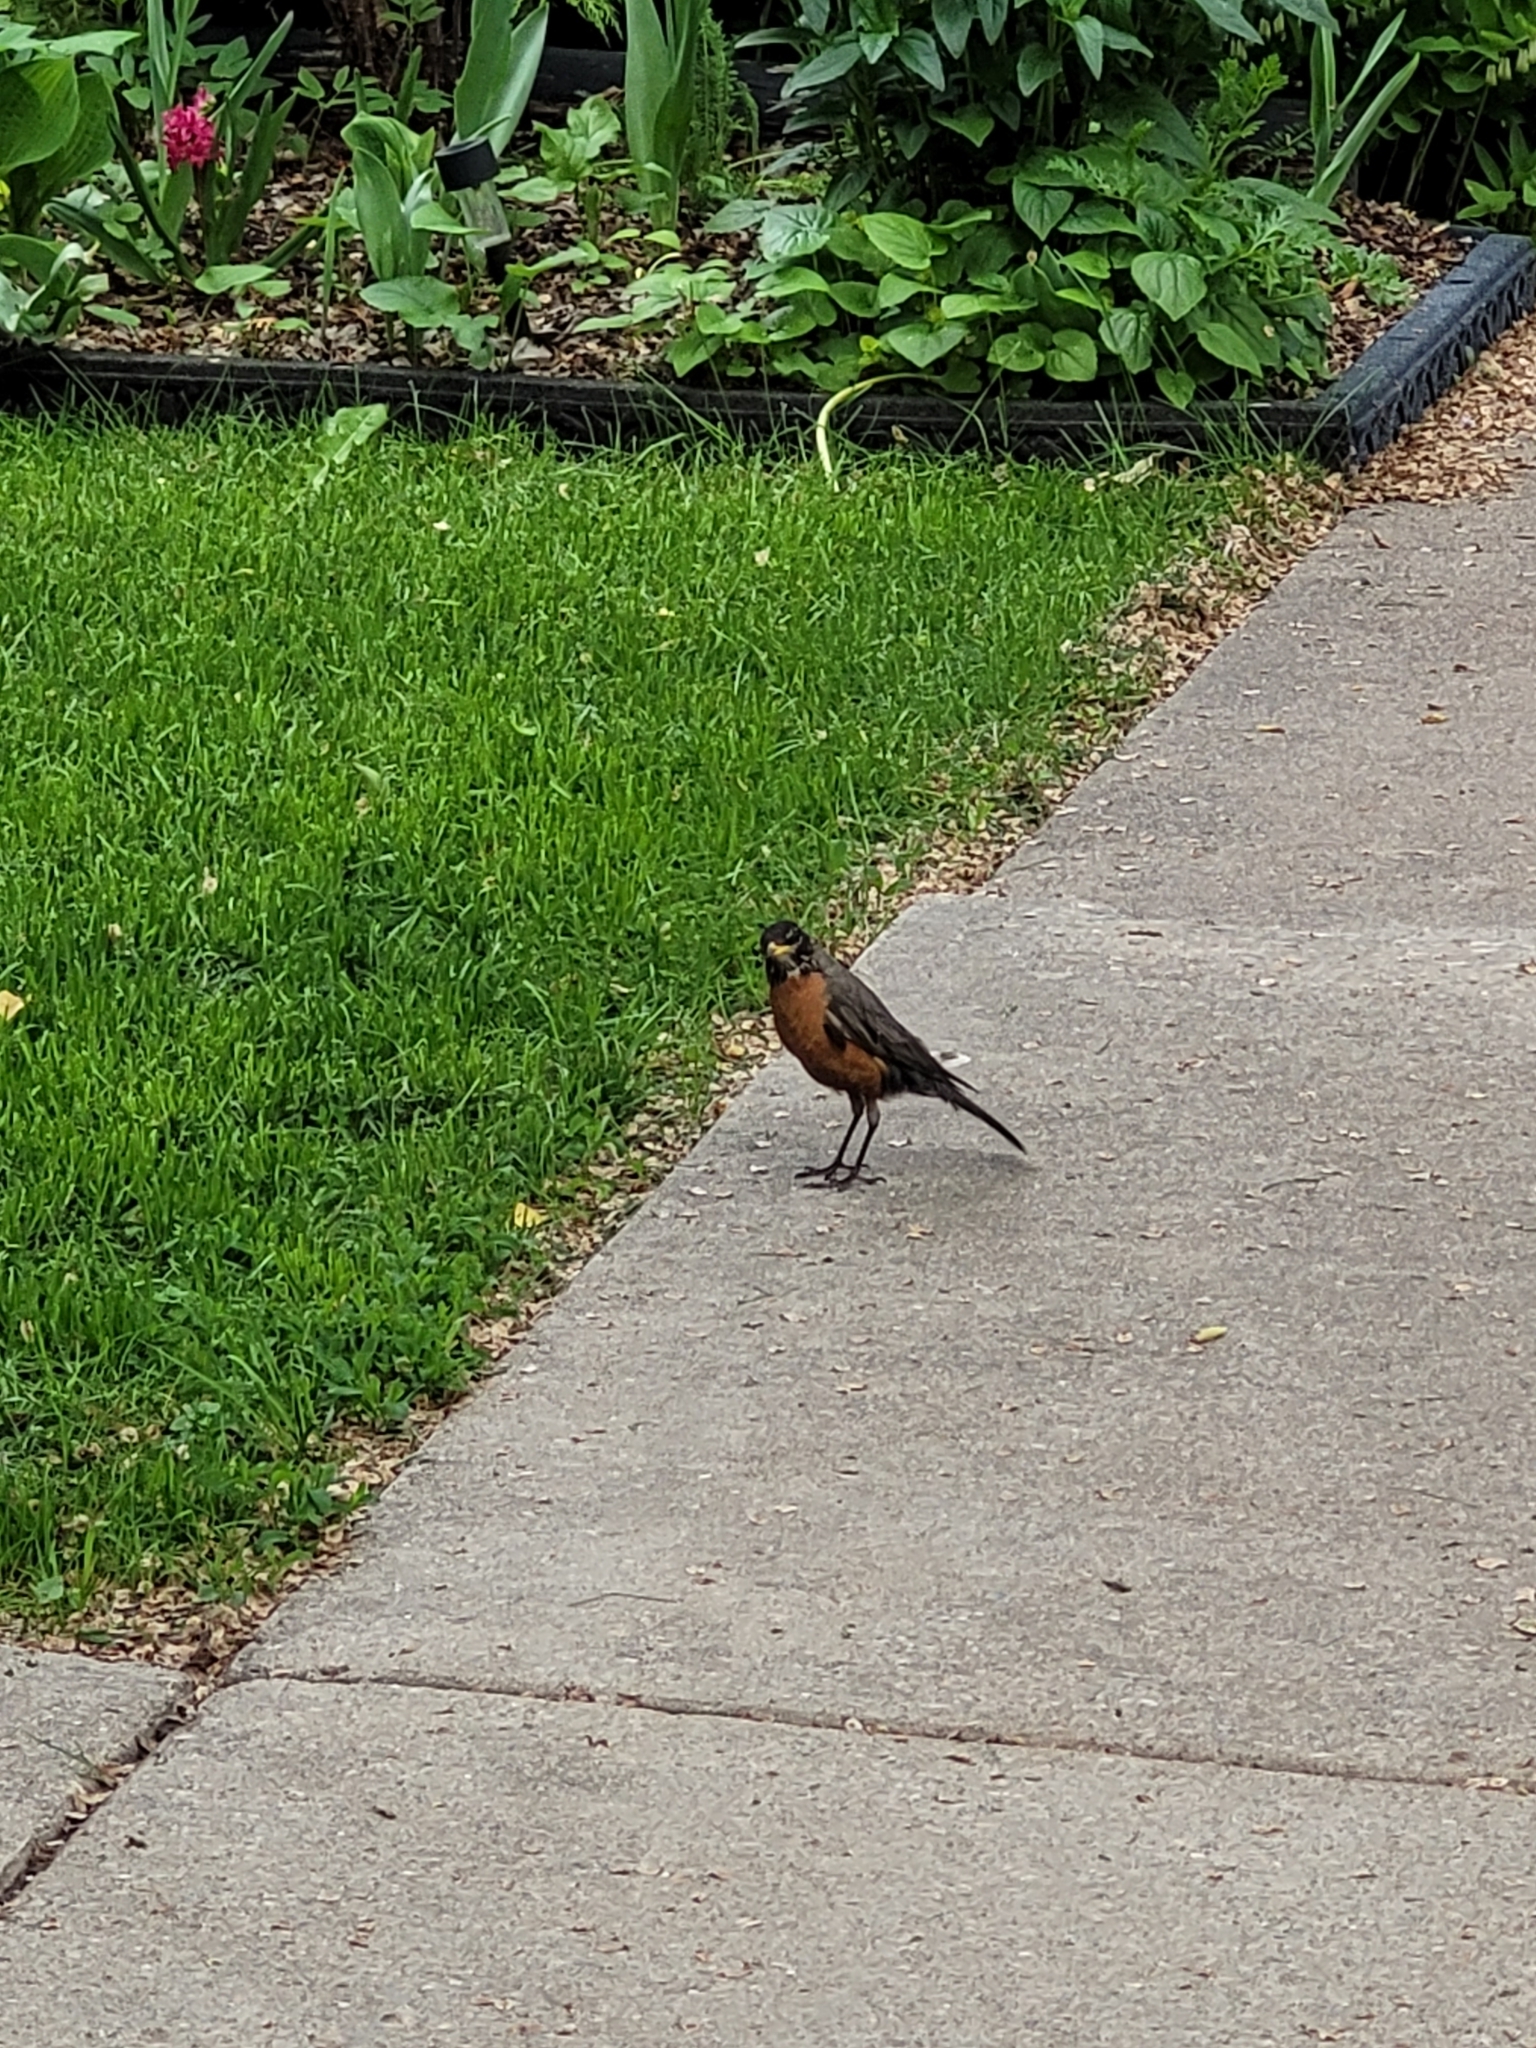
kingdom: Animalia
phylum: Chordata
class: Aves
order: Passeriformes
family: Turdidae
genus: Turdus
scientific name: Turdus migratorius
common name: American robin
